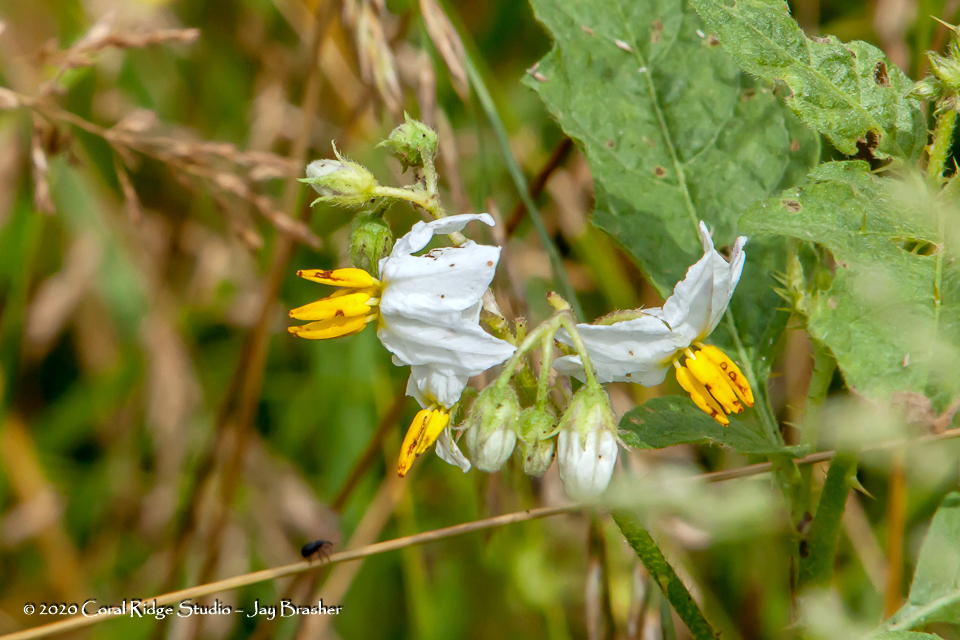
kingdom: Plantae
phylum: Tracheophyta
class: Magnoliopsida
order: Solanales
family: Solanaceae
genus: Solanum
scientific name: Solanum carolinense
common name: Horse-nettle
